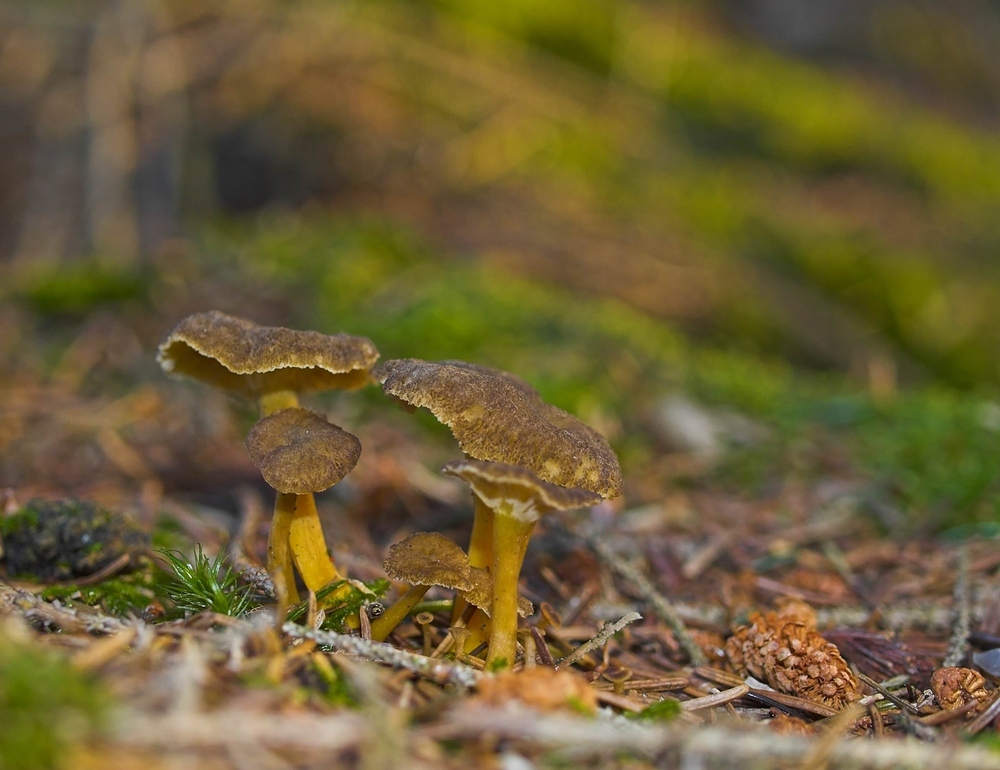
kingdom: Fungi
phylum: Basidiomycota
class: Agaricomycetes
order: Cantharellales
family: Hydnaceae
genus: Craterellus
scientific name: Craterellus tubaeformis
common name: Yellowfoot
